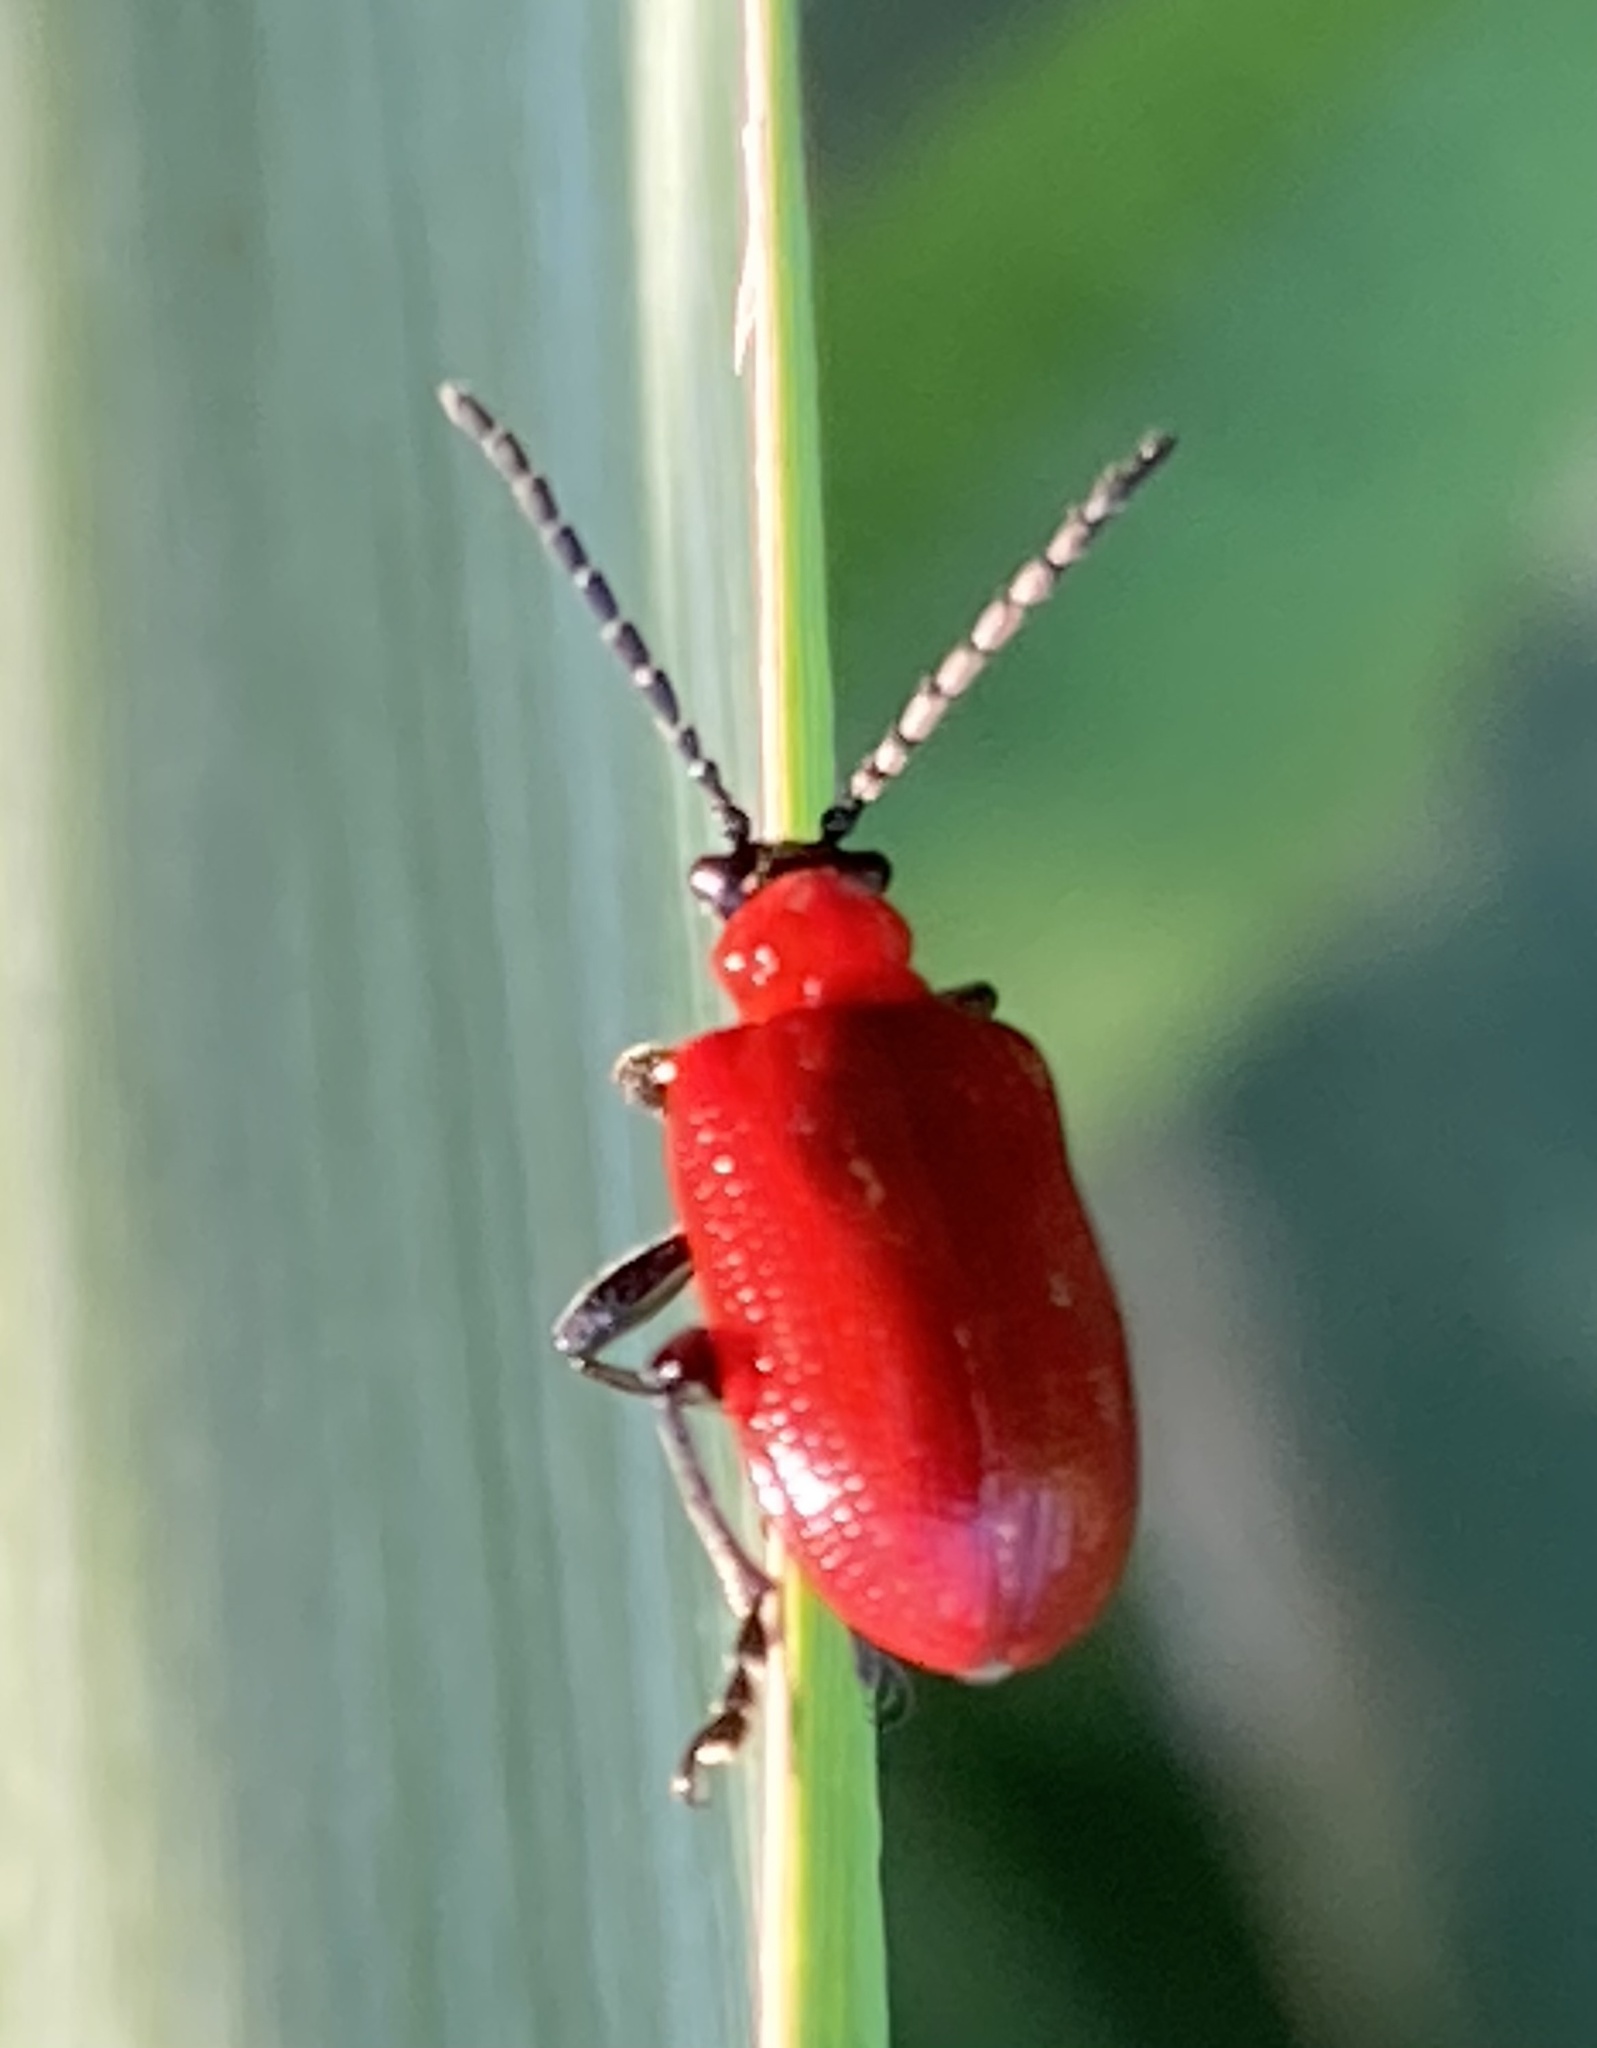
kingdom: Animalia
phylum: Arthropoda
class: Insecta
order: Coleoptera
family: Chrysomelidae
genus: Lilioceris
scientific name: Lilioceris lilii
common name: Lily beetle
